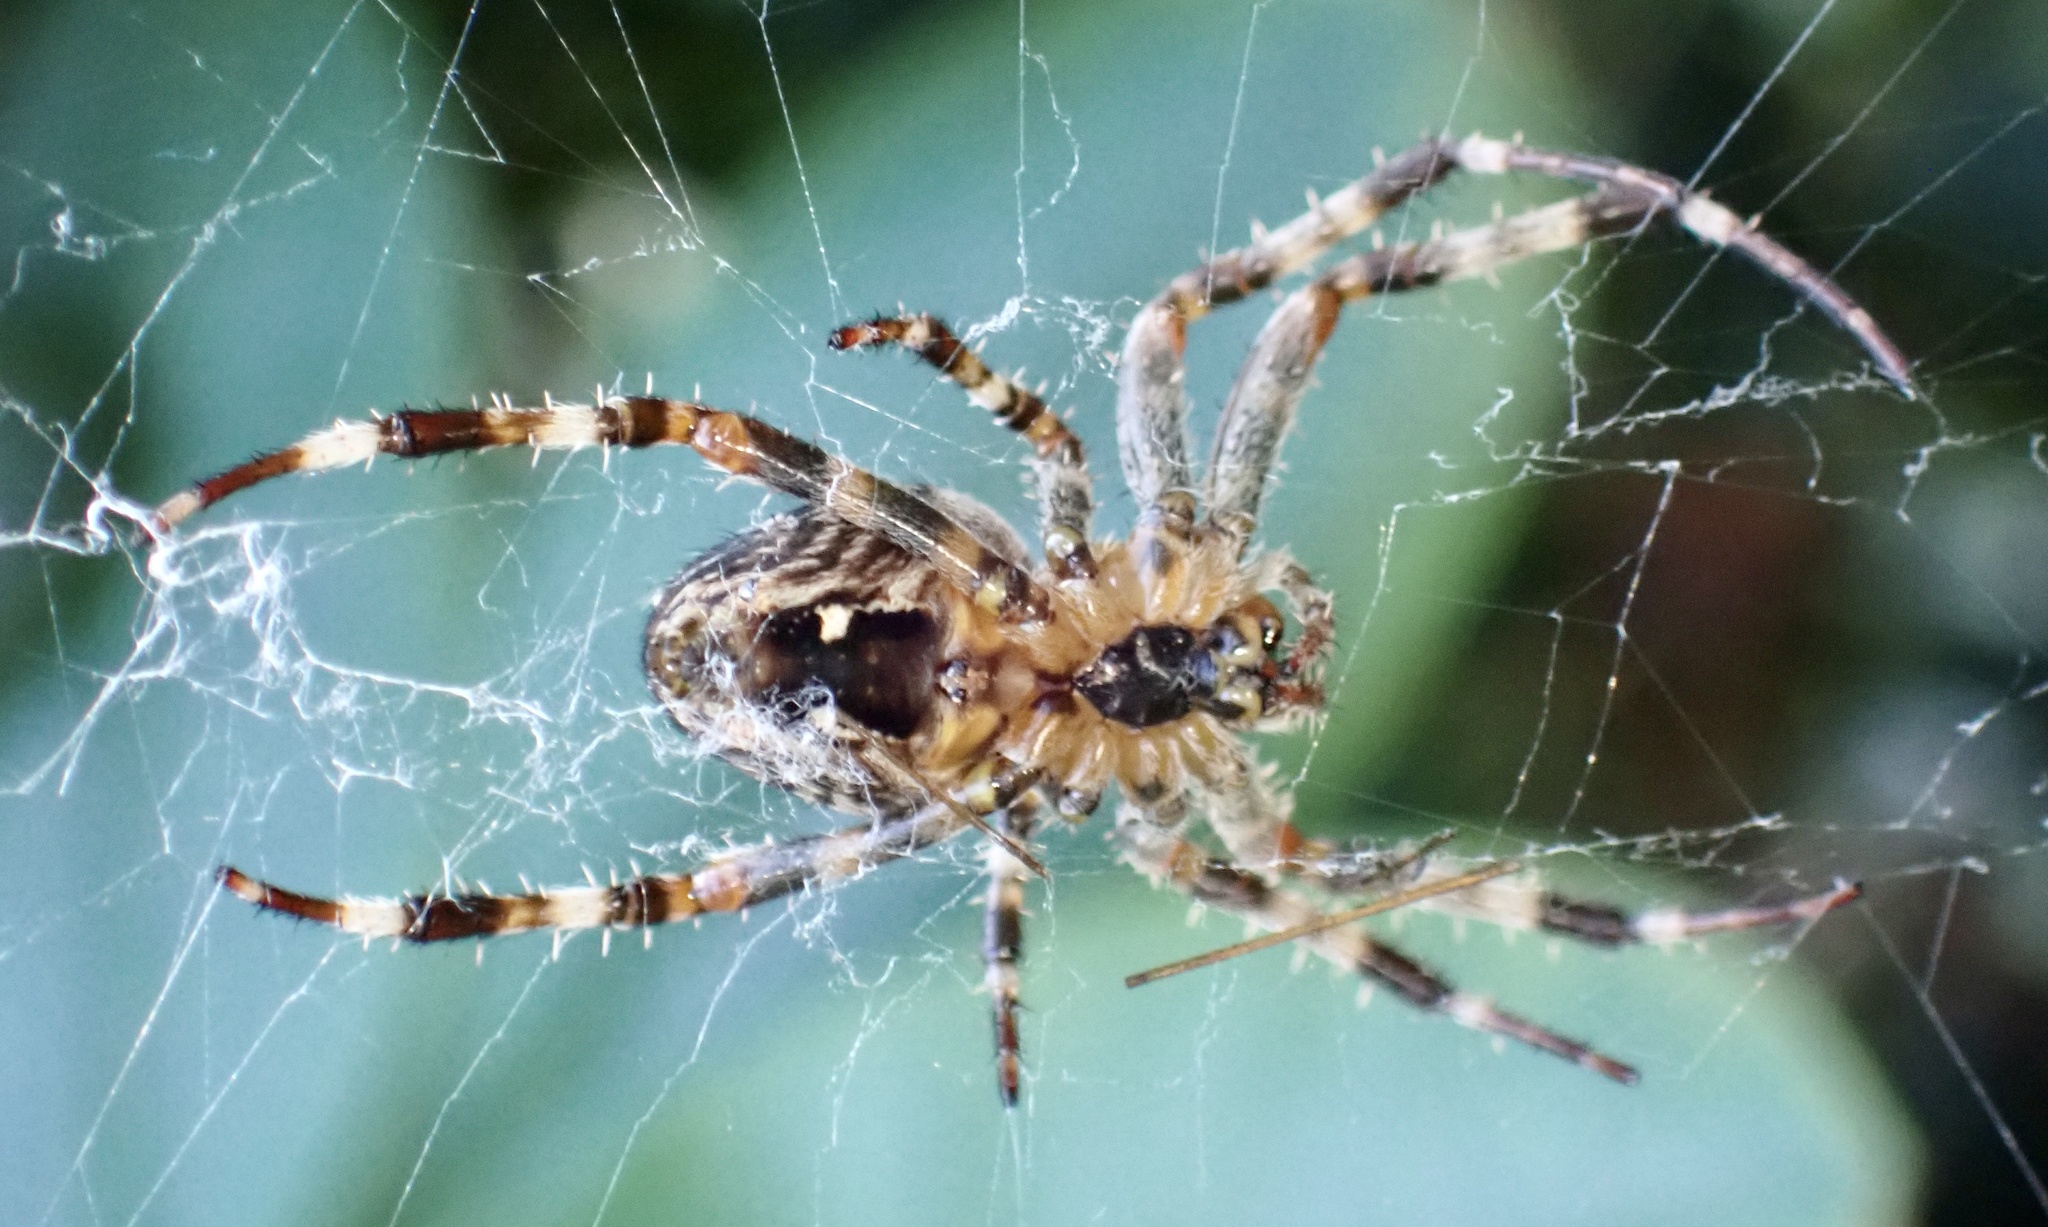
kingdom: Animalia
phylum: Arthropoda
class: Arachnida
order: Araneae
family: Araneidae
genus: Araneus
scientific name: Araneus diadematus
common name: Cross orbweaver
